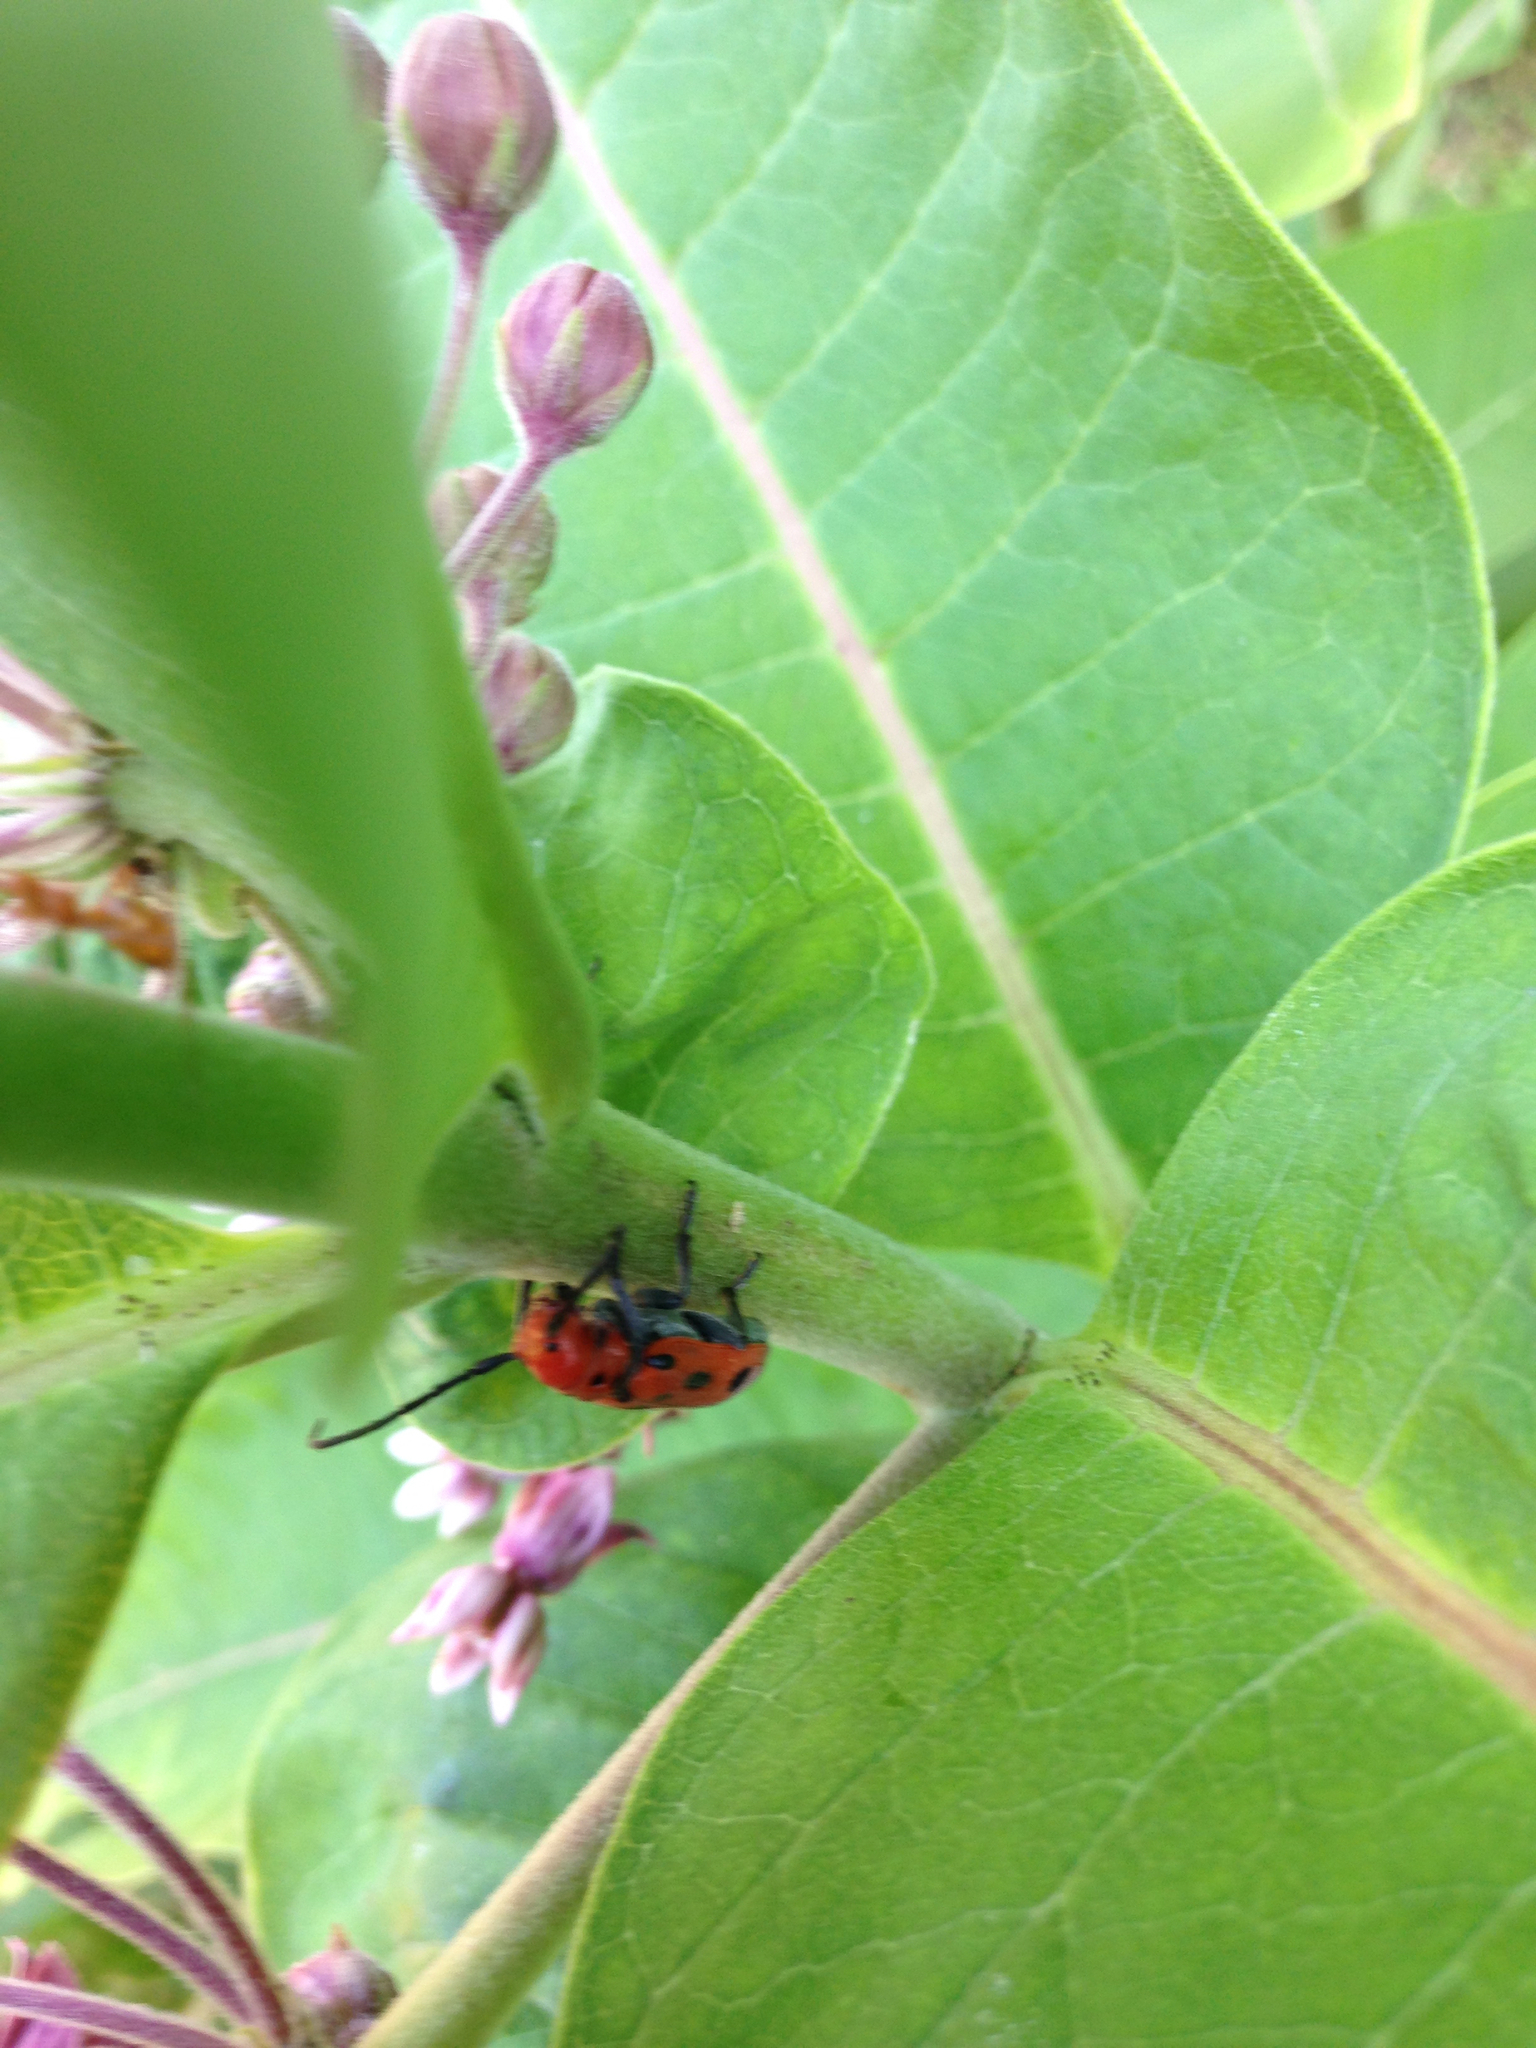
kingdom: Animalia
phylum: Arthropoda
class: Insecta
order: Coleoptera
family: Cerambycidae
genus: Tetraopes
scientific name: Tetraopes tetrophthalmus
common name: Red milkweed beetle
